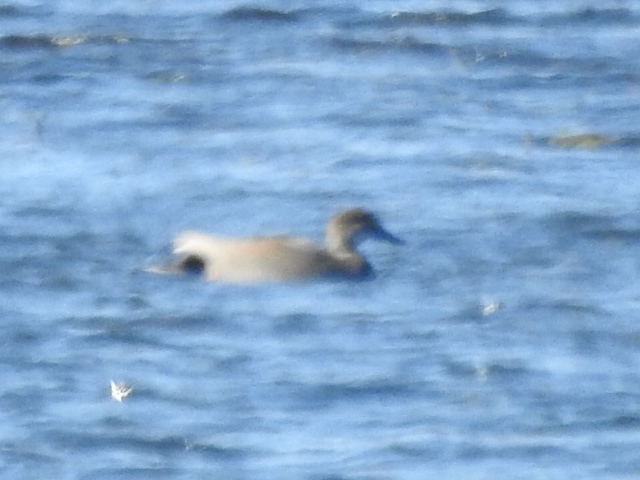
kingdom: Animalia
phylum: Chordata
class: Aves
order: Anseriformes
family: Anatidae
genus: Mareca
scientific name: Mareca strepera
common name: Gadwall
